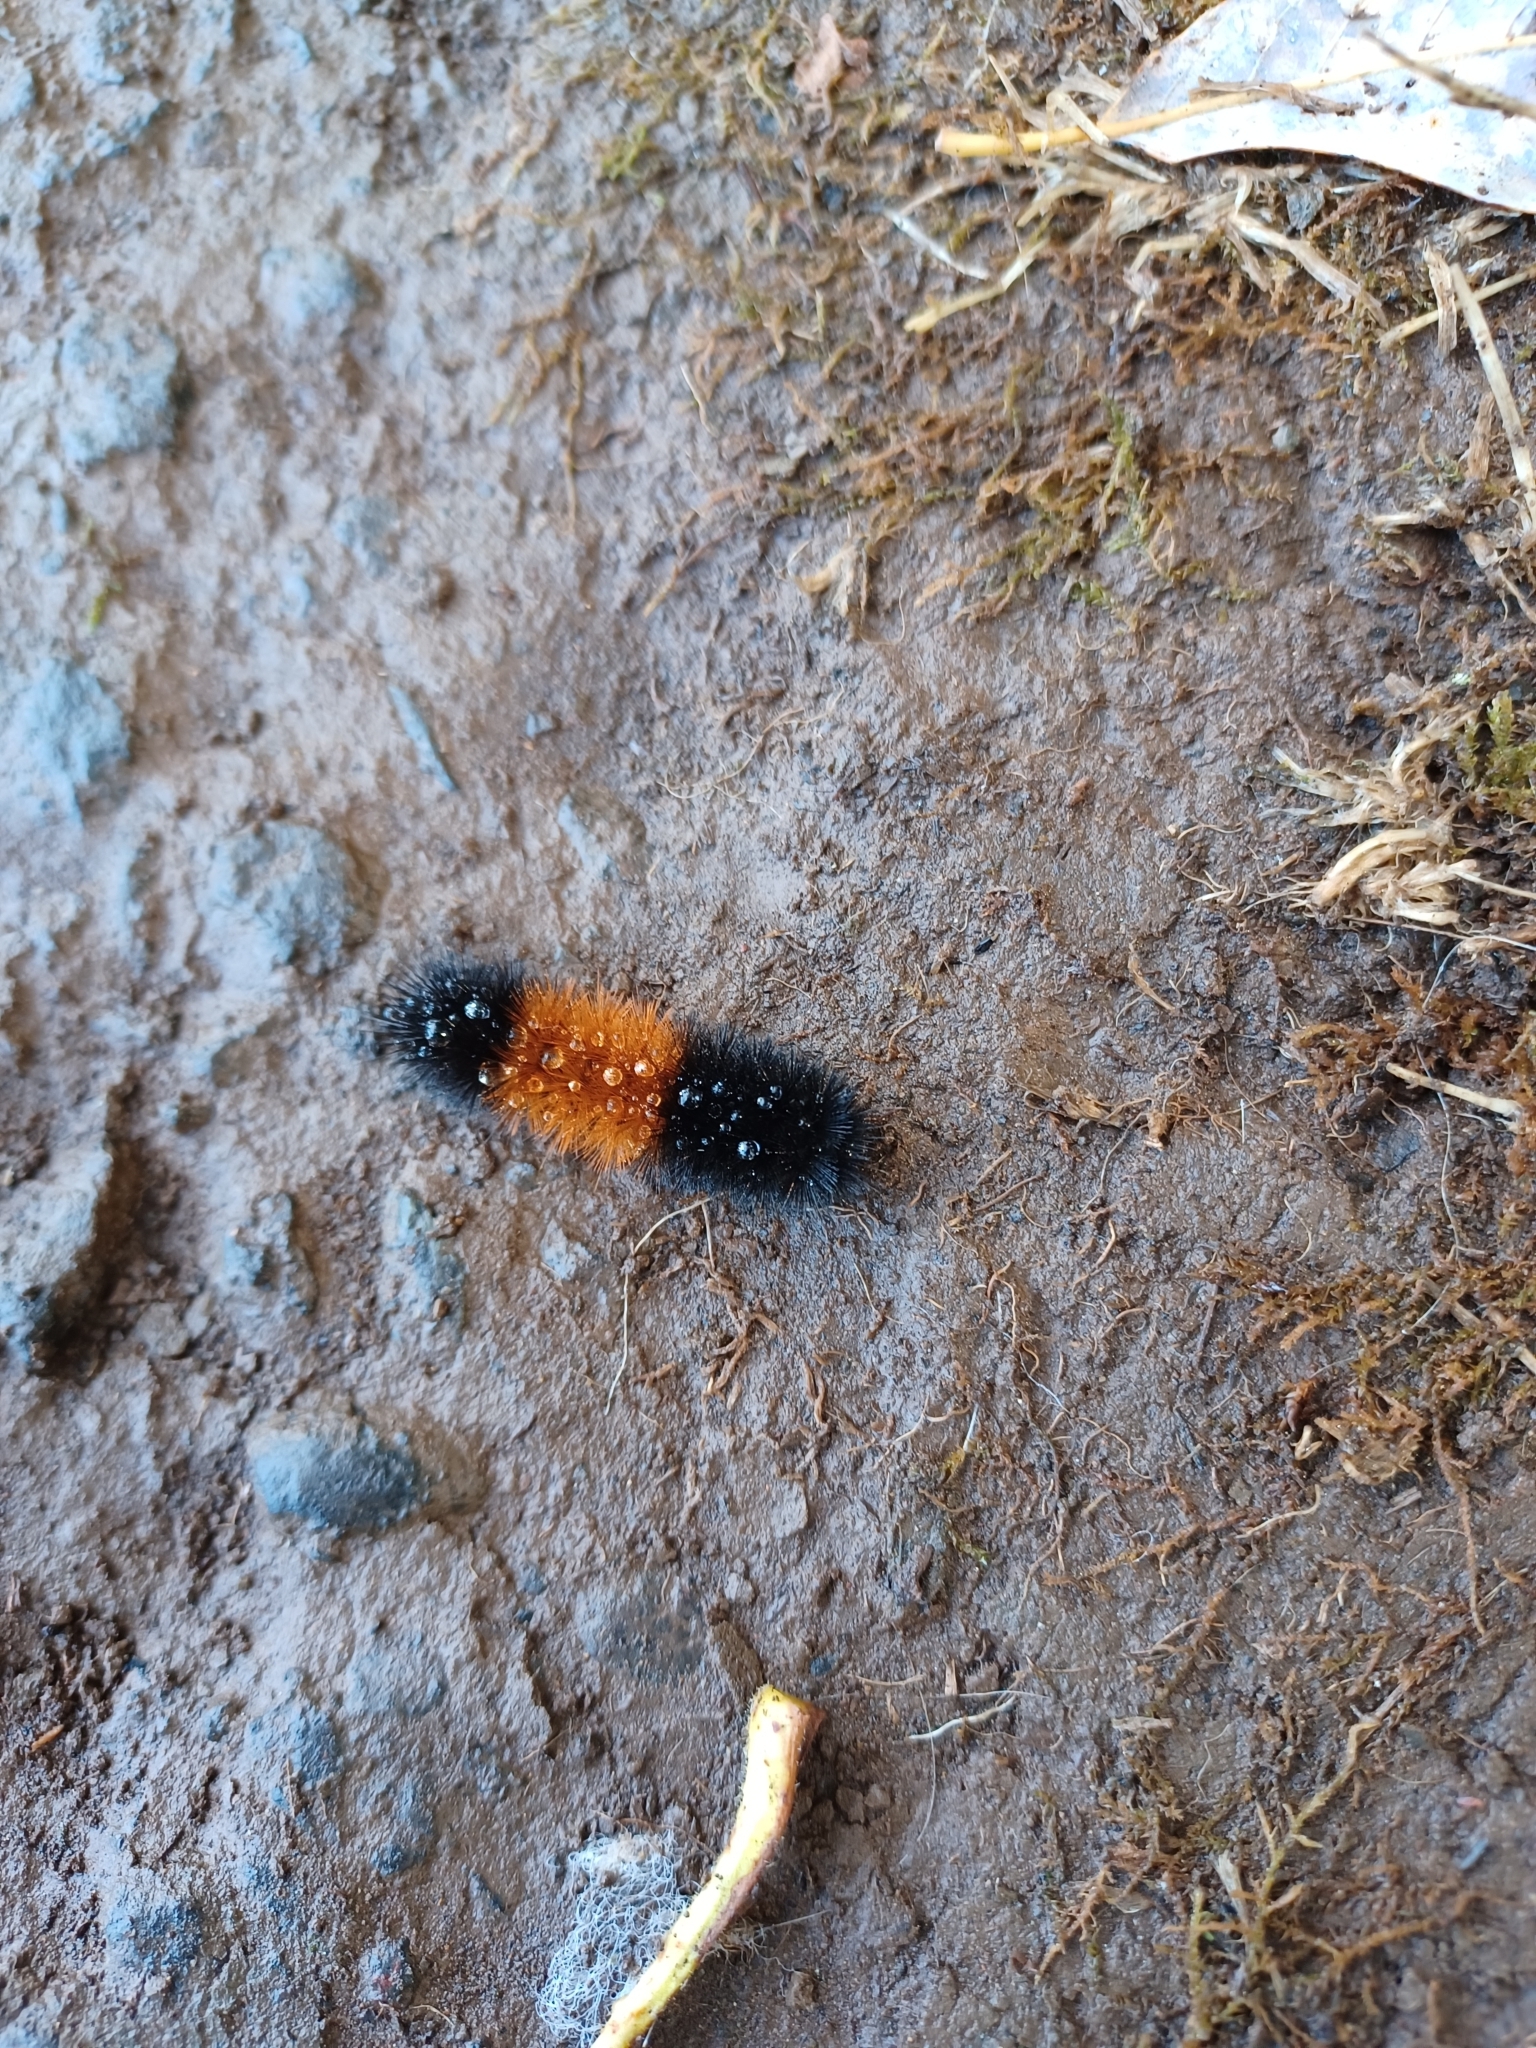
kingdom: Animalia
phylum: Arthropoda
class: Insecta
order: Lepidoptera
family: Erebidae
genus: Pyrrharctia
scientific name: Pyrrharctia isabella
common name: Isabella tiger moth
